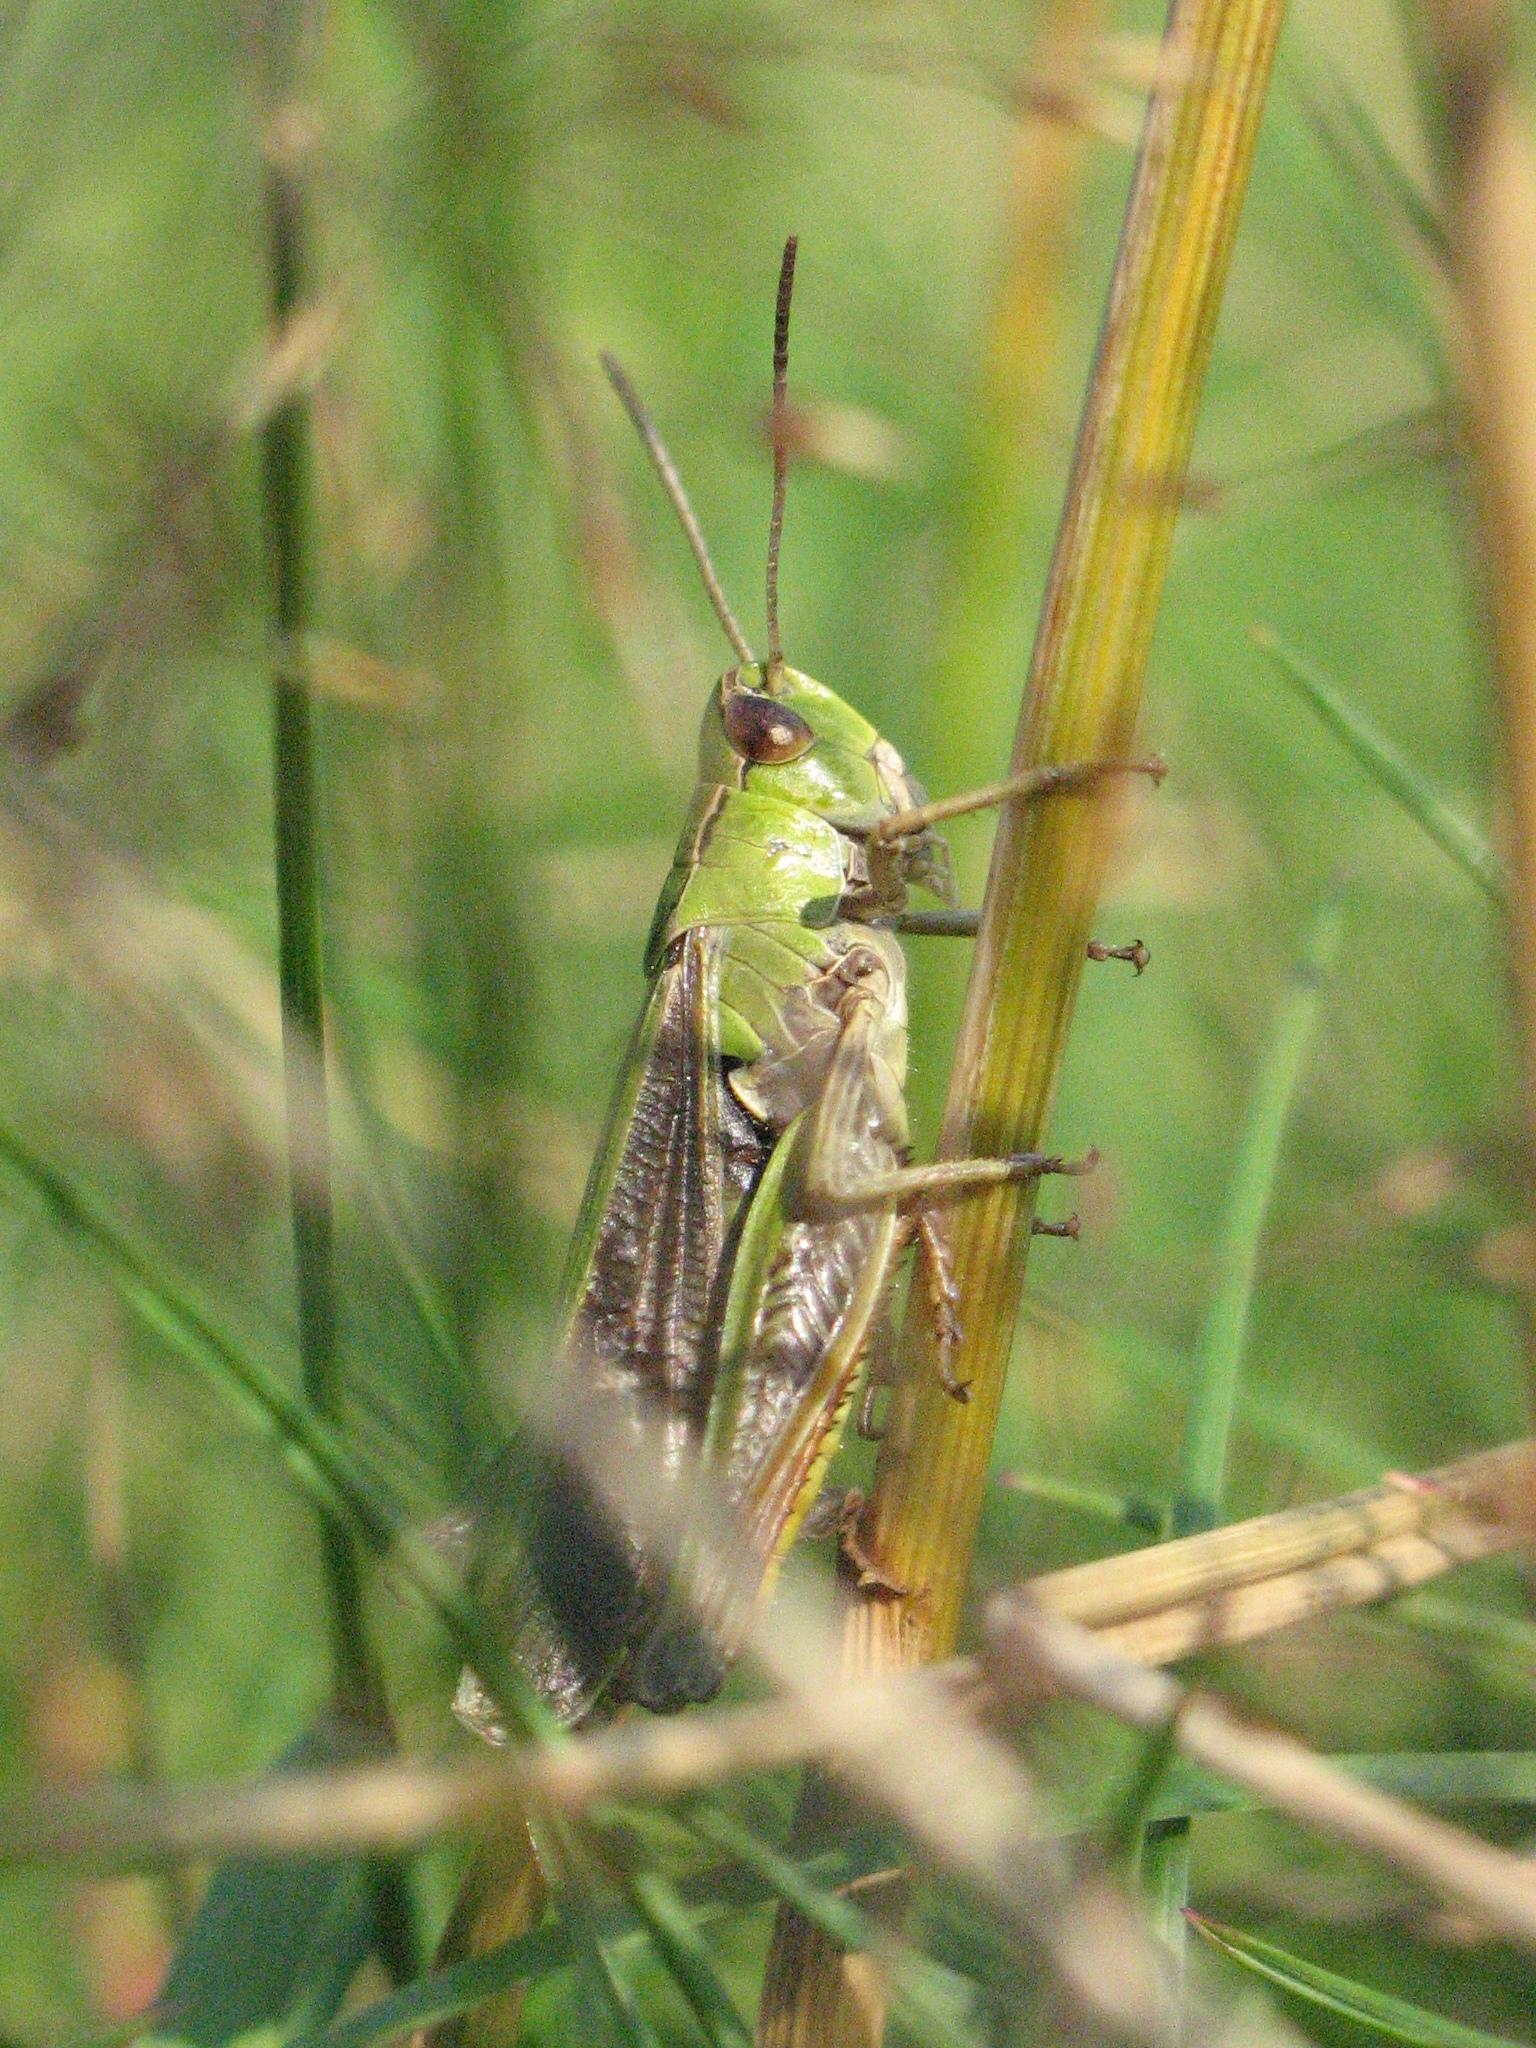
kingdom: Animalia
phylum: Arthropoda
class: Insecta
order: Orthoptera
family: Acrididae
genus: Stenobothrus
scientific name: Stenobothrus lineatus
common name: Stripe-winged grasshopper
